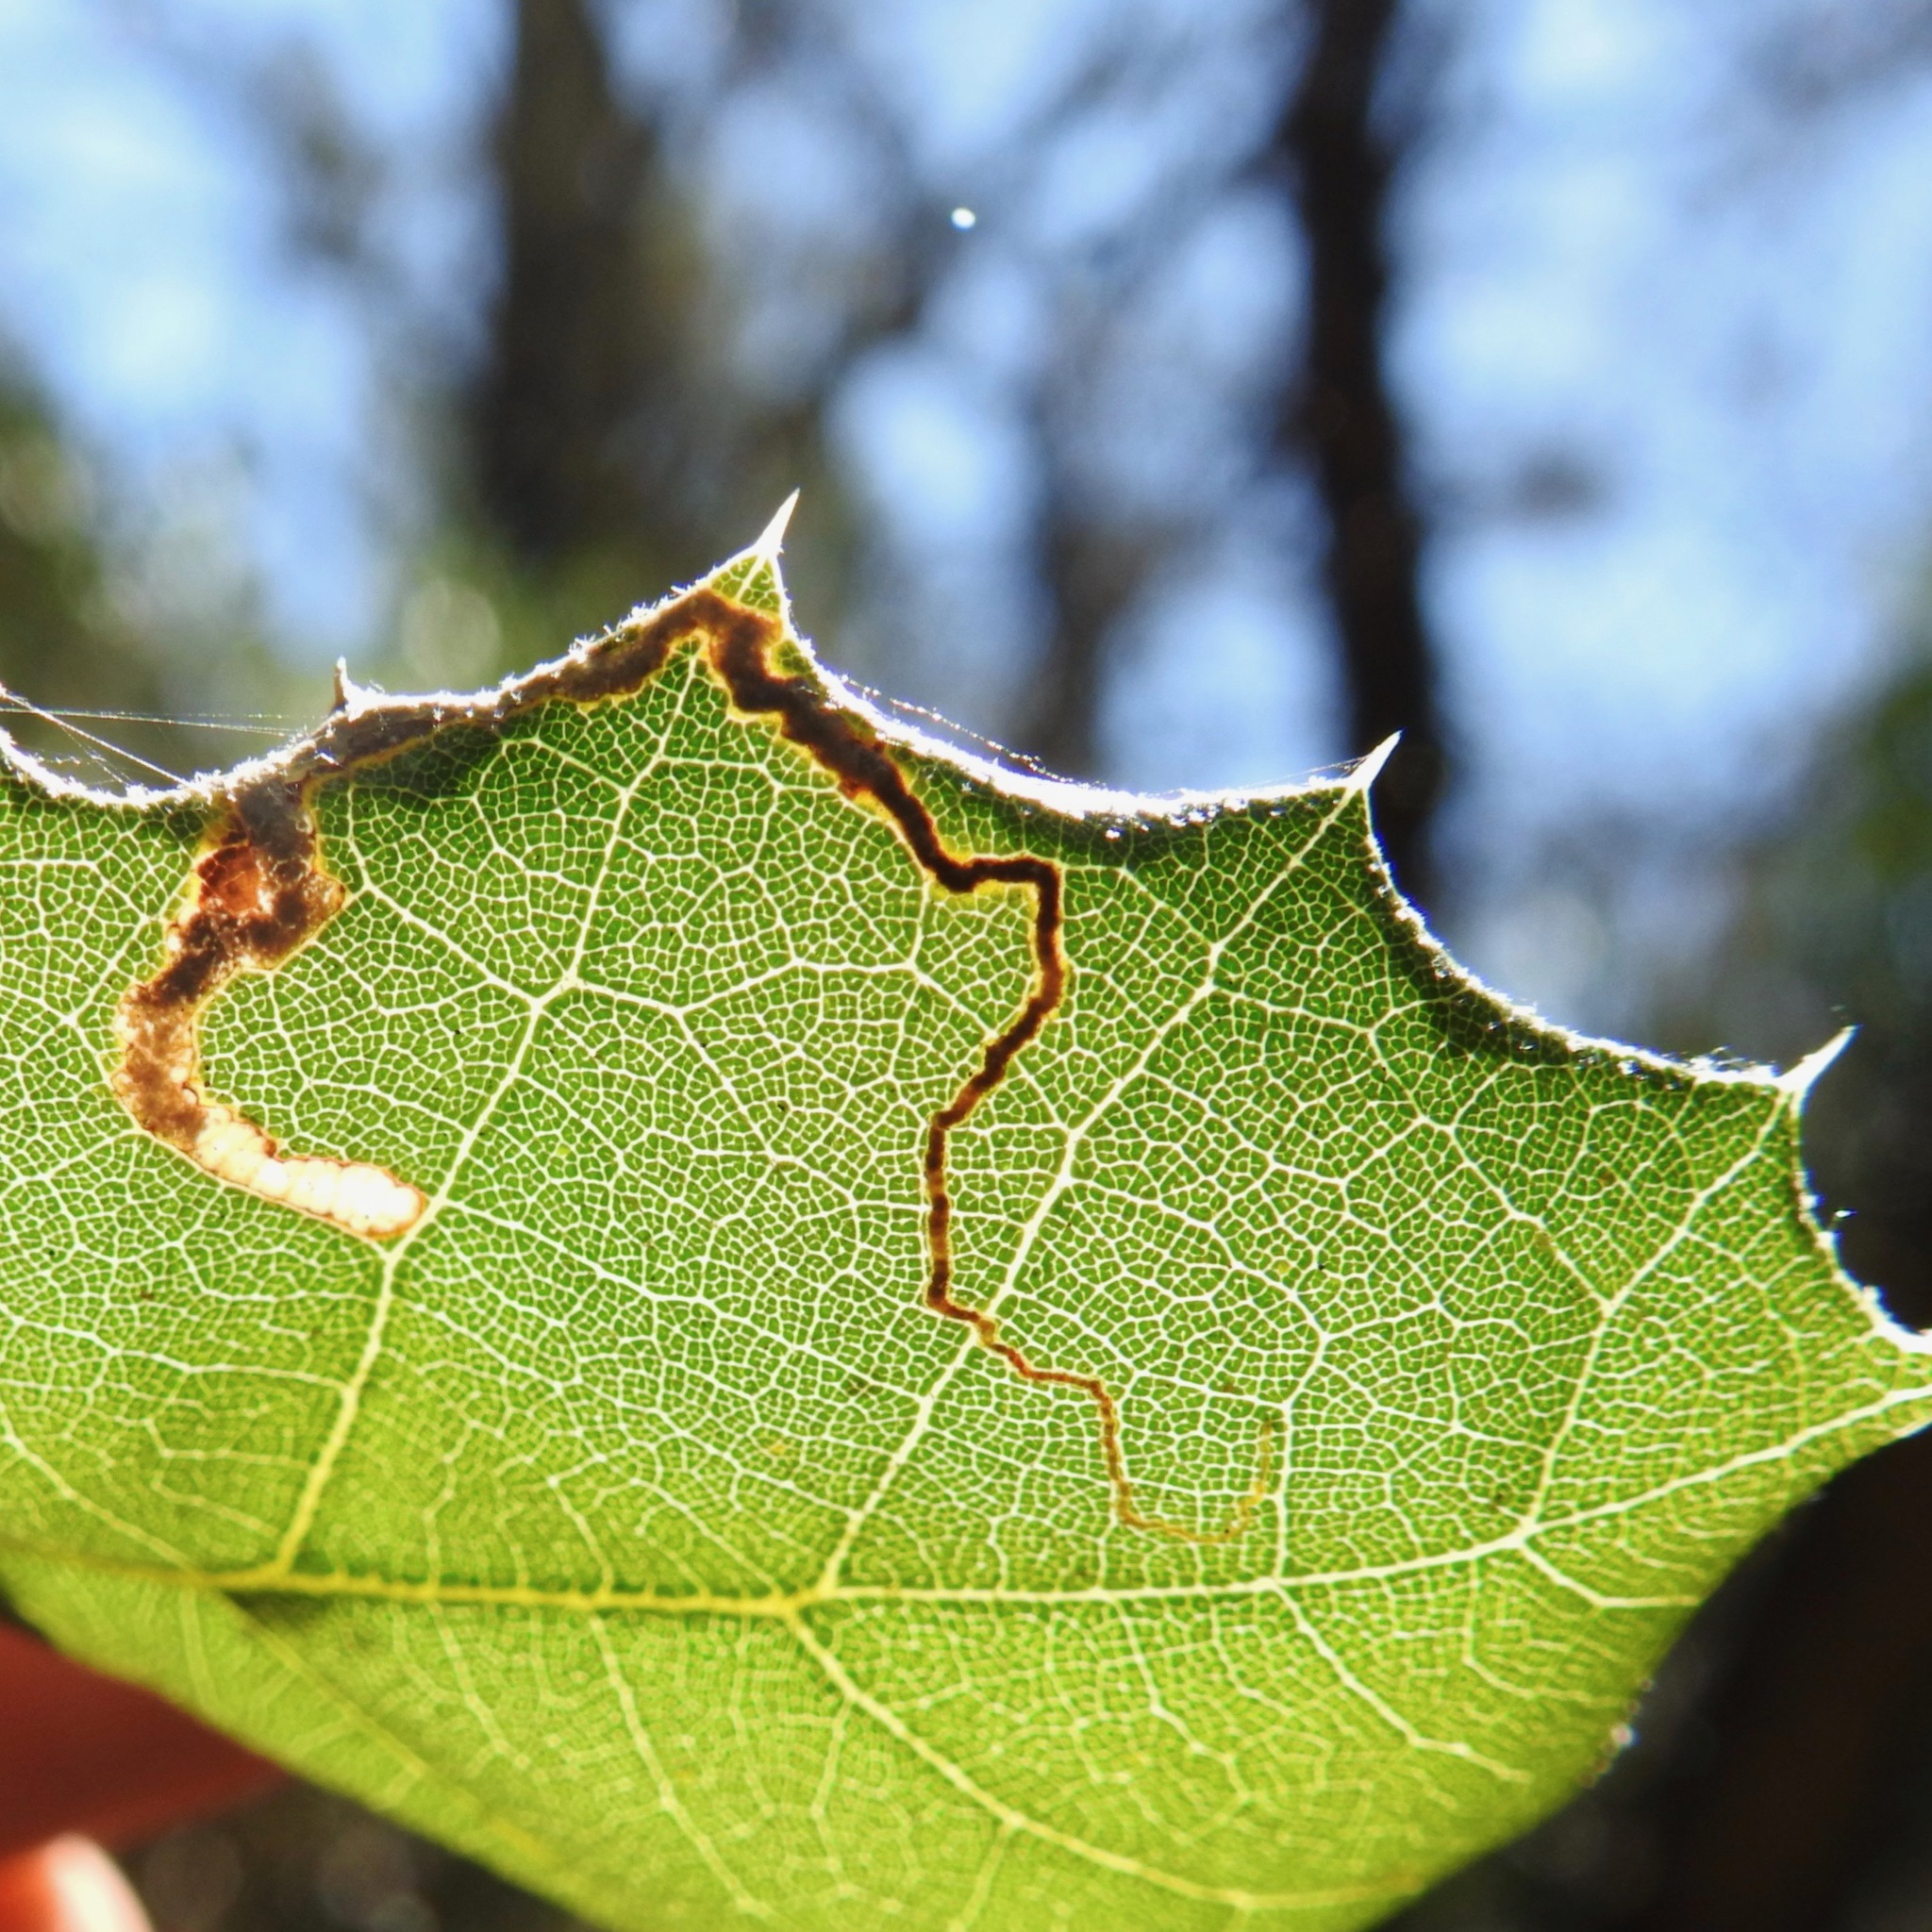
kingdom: Plantae
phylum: Tracheophyta
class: Magnoliopsida
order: Fagales
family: Fagaceae
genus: Quercus
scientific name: Quercus agrifolia
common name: California live oak
